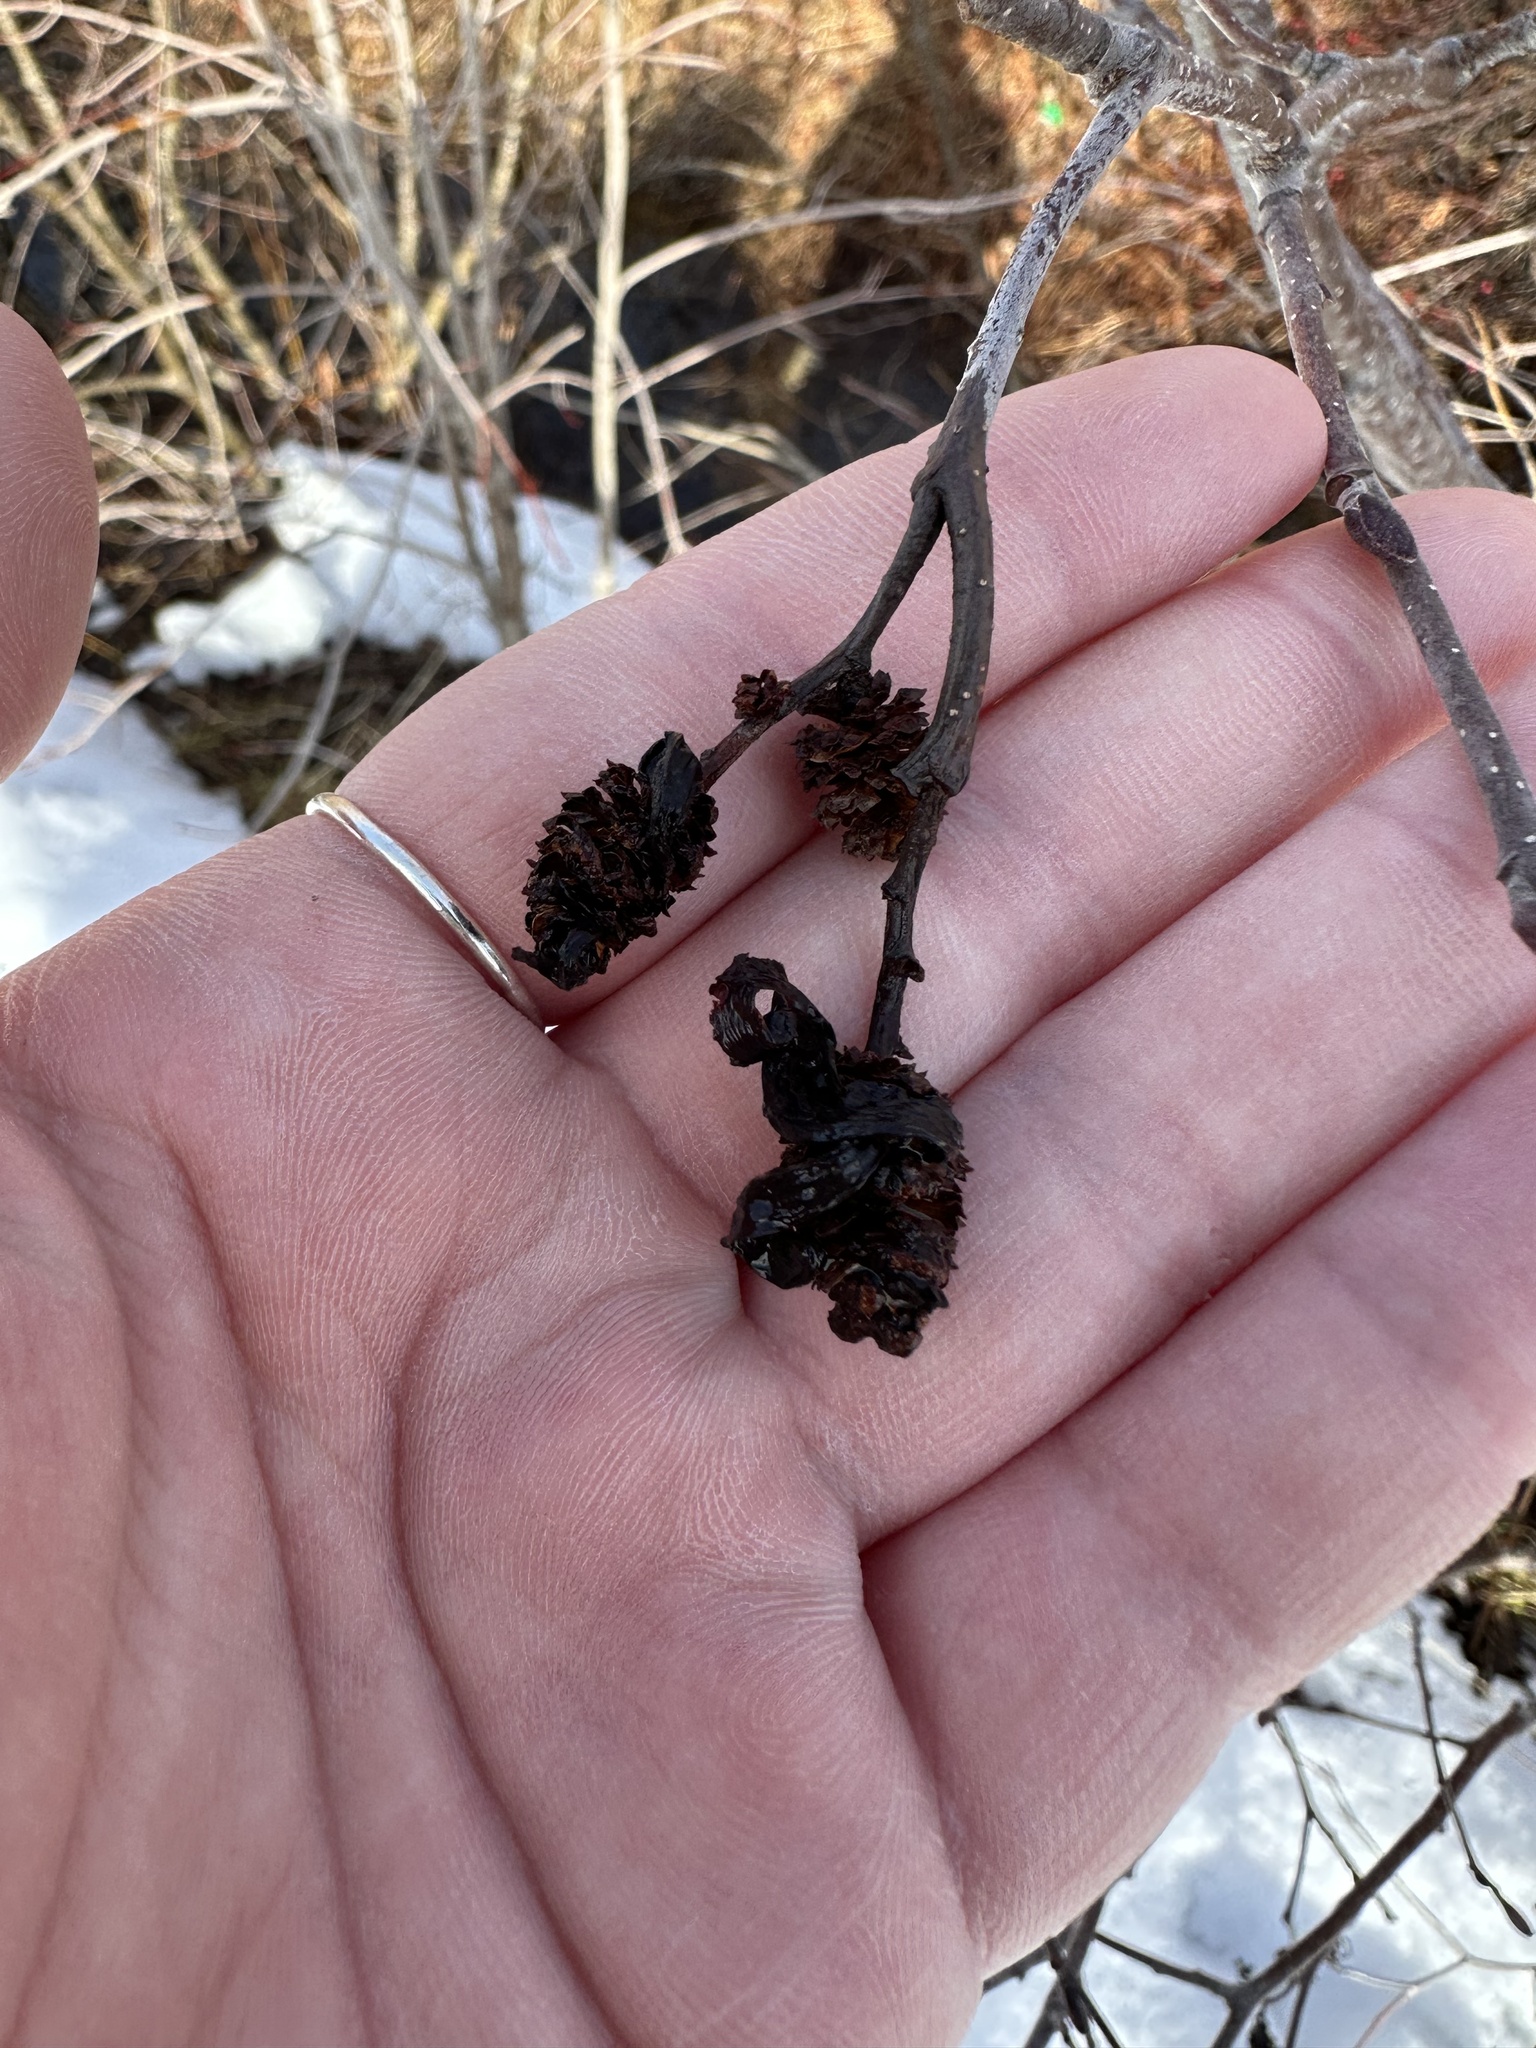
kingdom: Fungi
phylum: Ascomycota
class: Taphrinomycetes
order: Taphrinales
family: Taphrinaceae
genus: Taphrina
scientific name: Taphrina robinsoniana
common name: Eastern american alder tongue gall fungus
